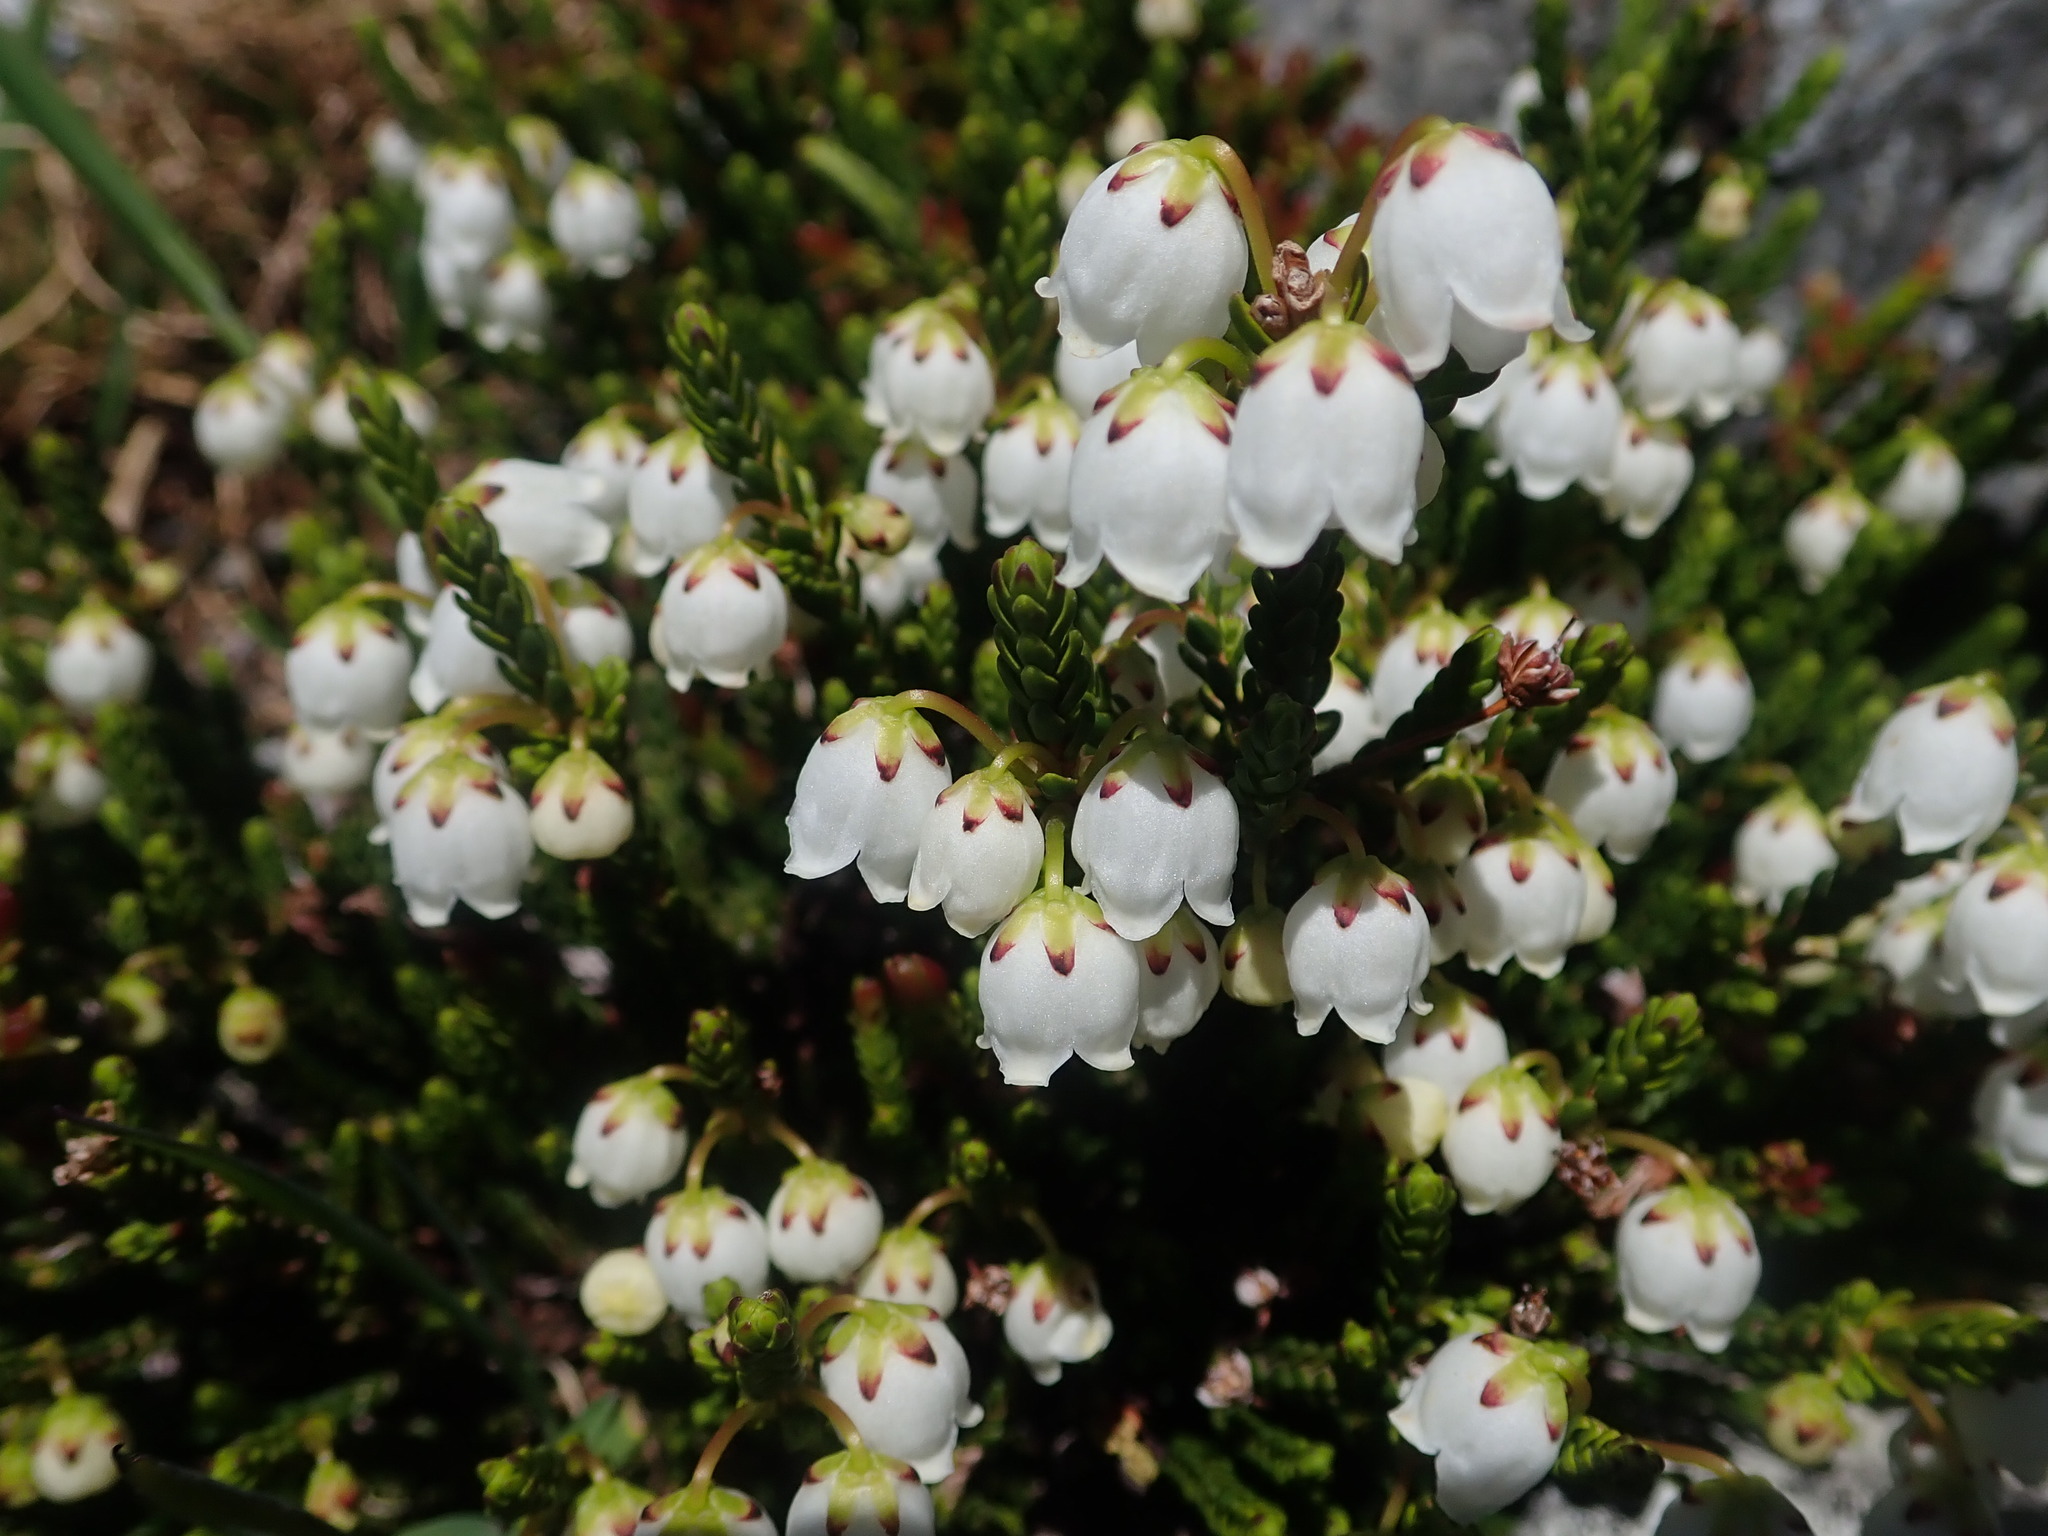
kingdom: Plantae
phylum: Tracheophyta
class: Magnoliopsida
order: Ericales
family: Ericaceae
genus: Cassiope
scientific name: Cassiope mertensiana
